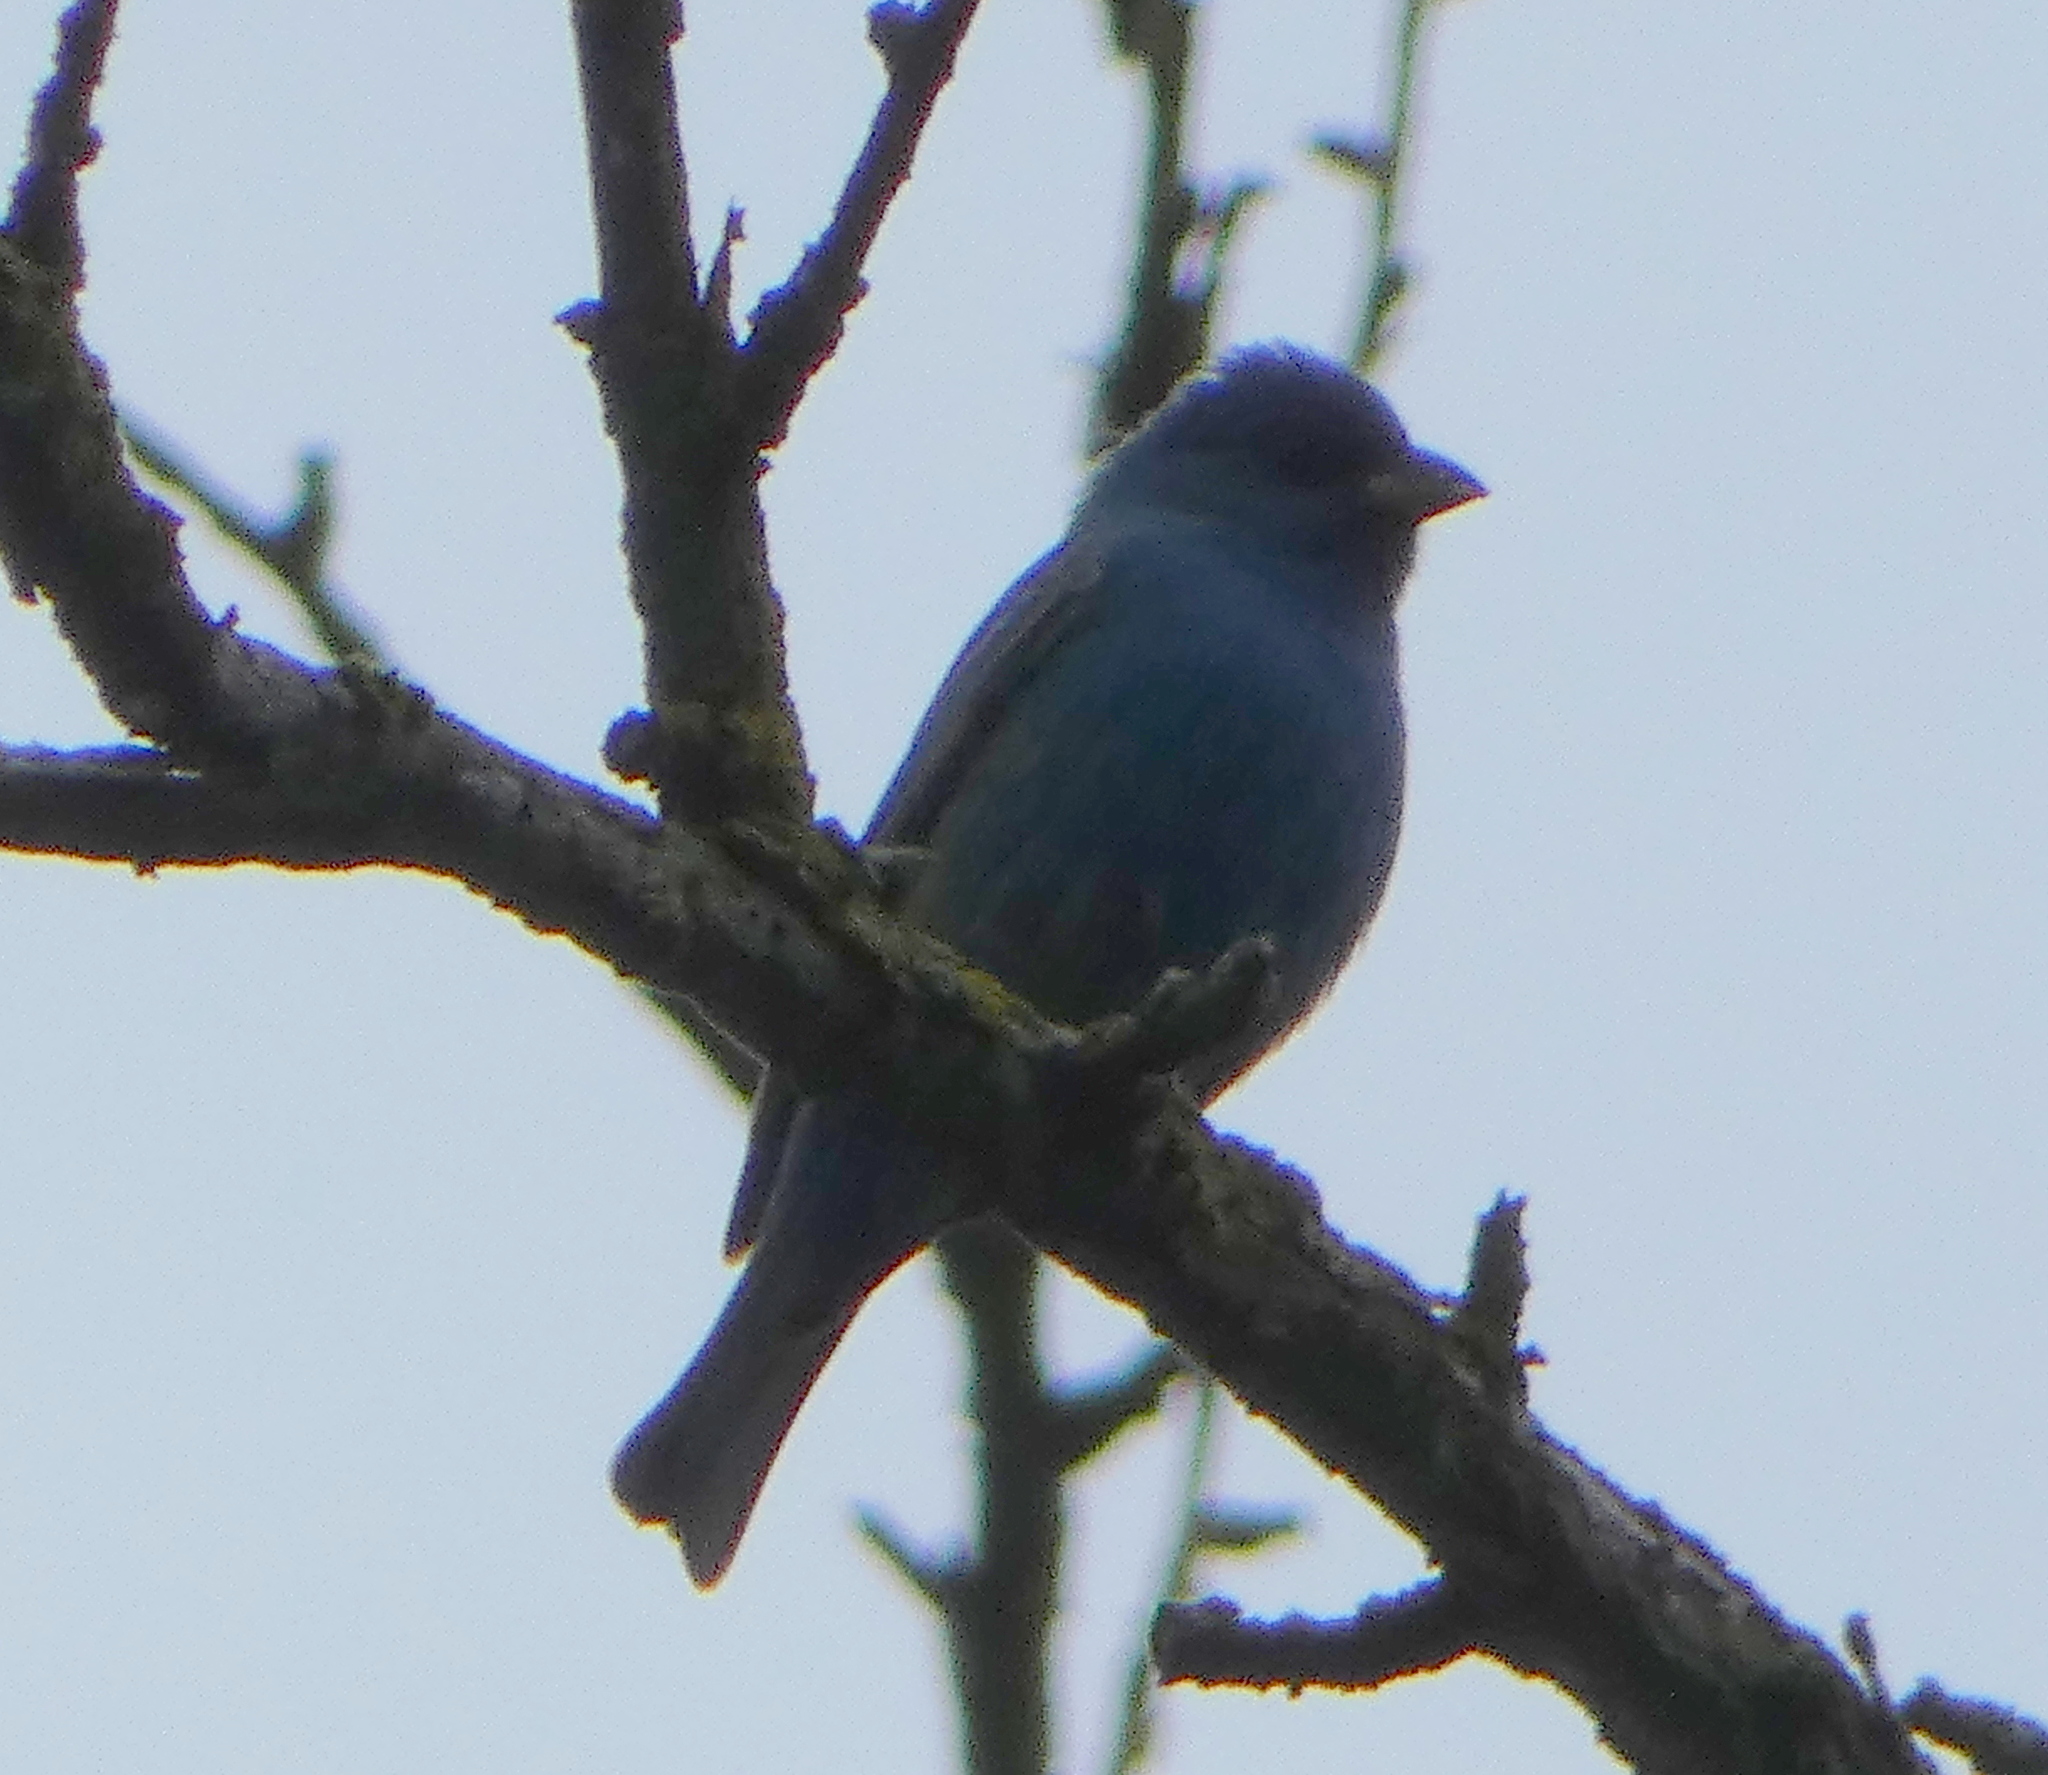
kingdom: Animalia
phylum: Chordata
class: Aves
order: Passeriformes
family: Cardinalidae
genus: Passerina
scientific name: Passerina cyanea
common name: Indigo bunting
